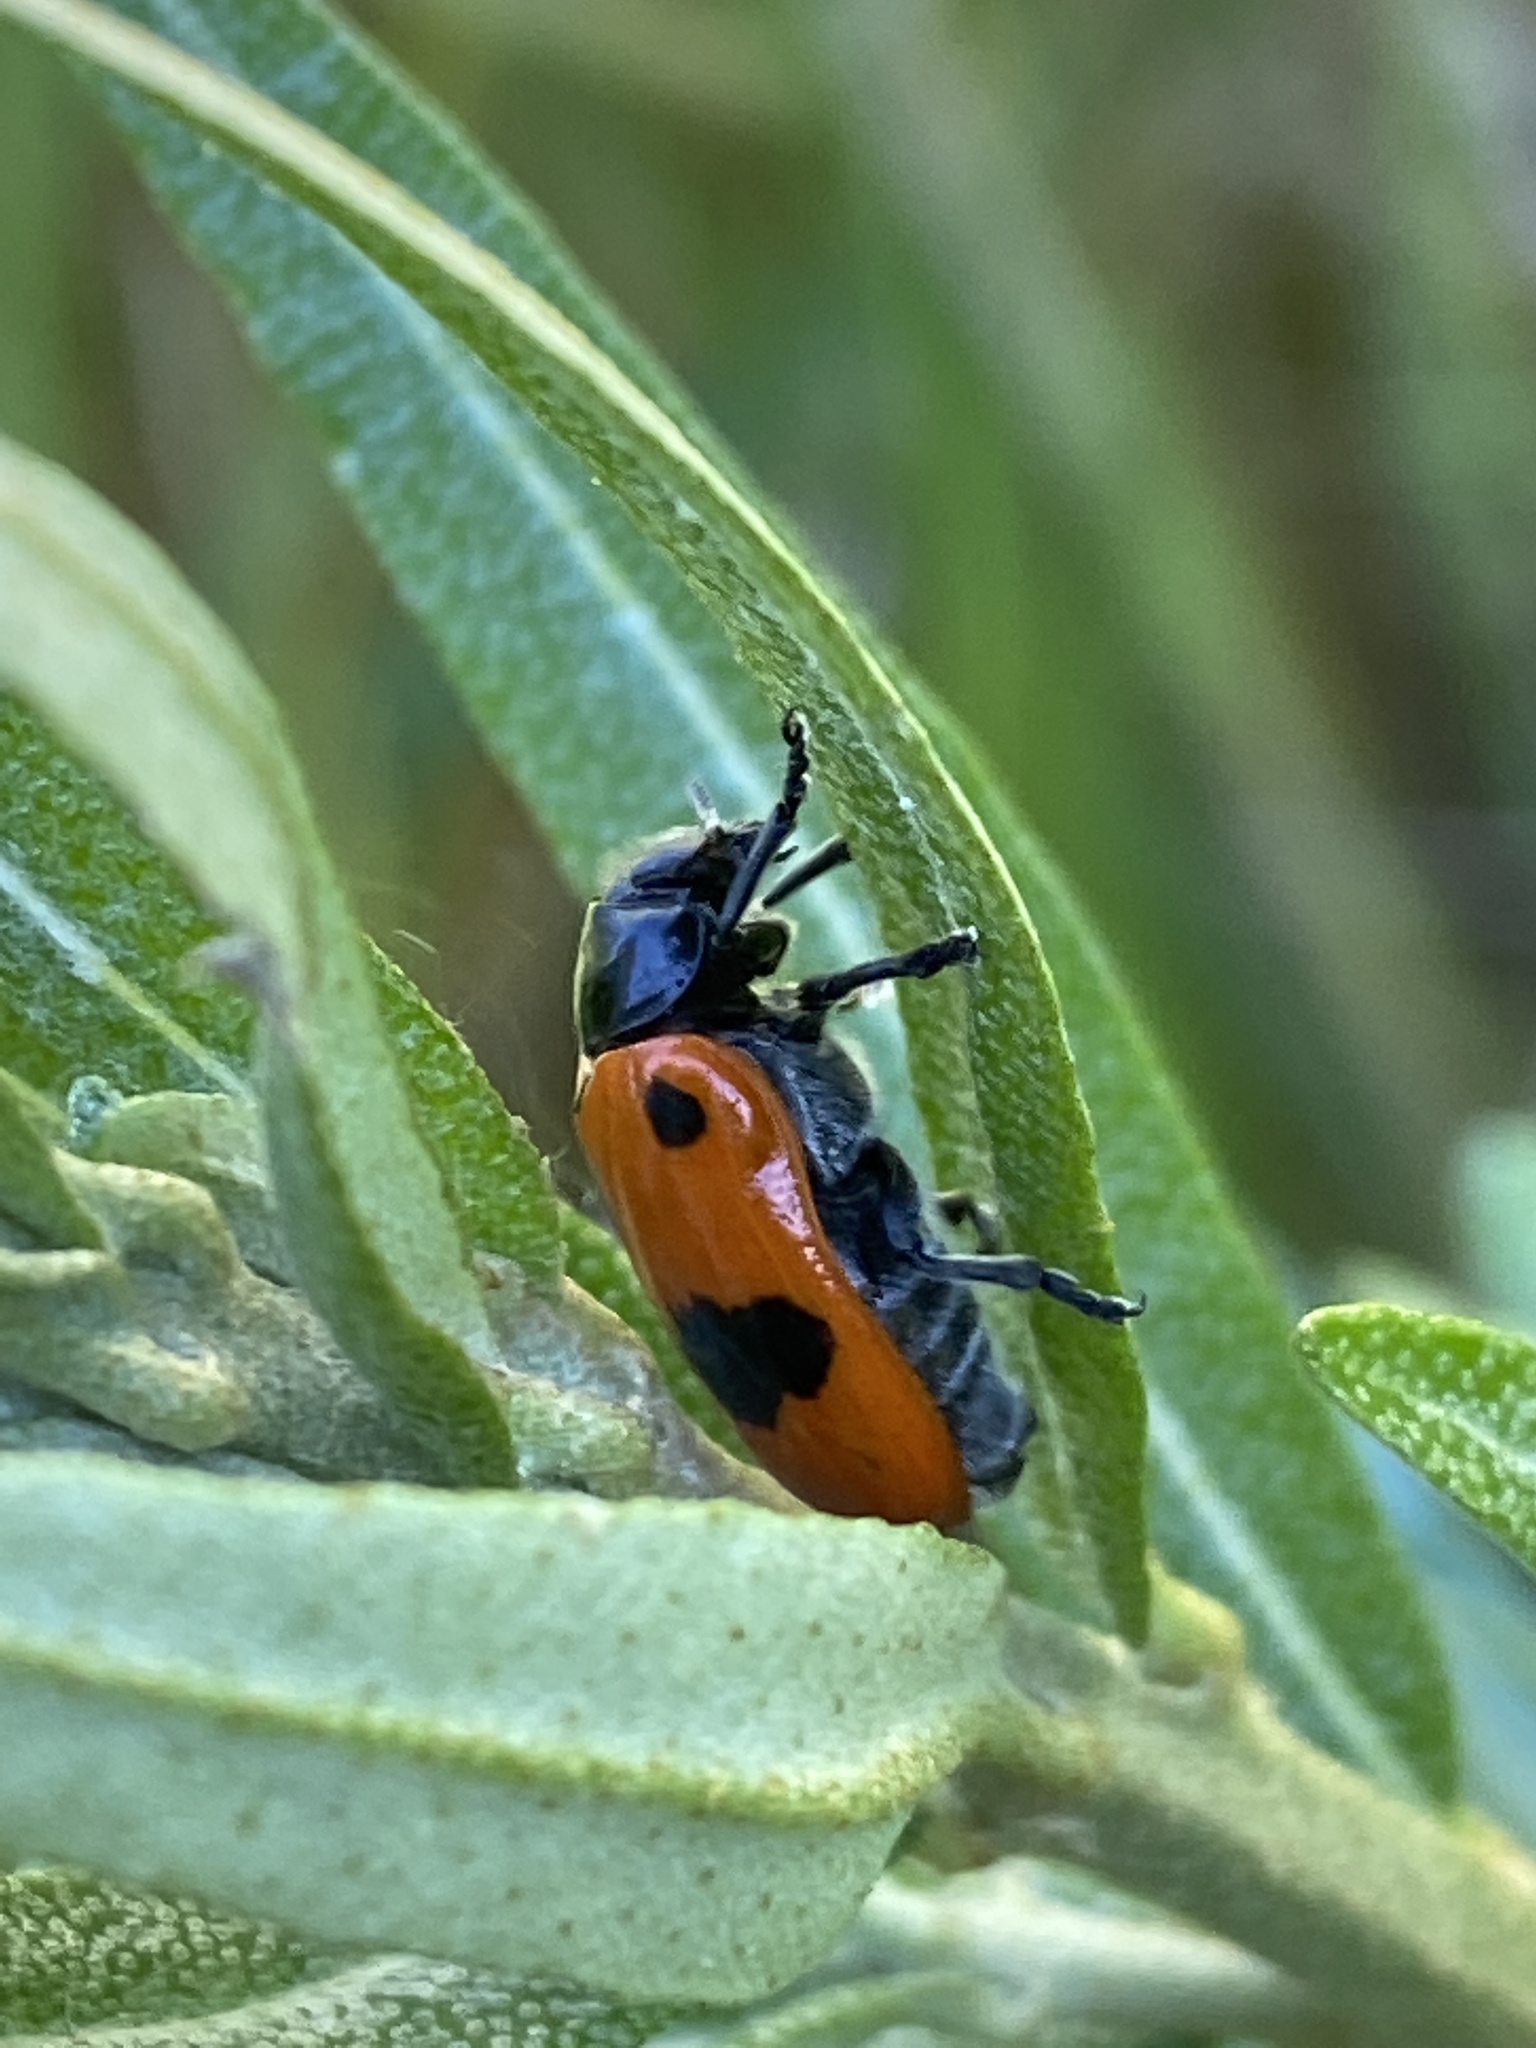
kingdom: Animalia
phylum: Arthropoda
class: Insecta
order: Coleoptera
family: Chrysomelidae
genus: Clytra
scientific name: Clytra laeviuscula
